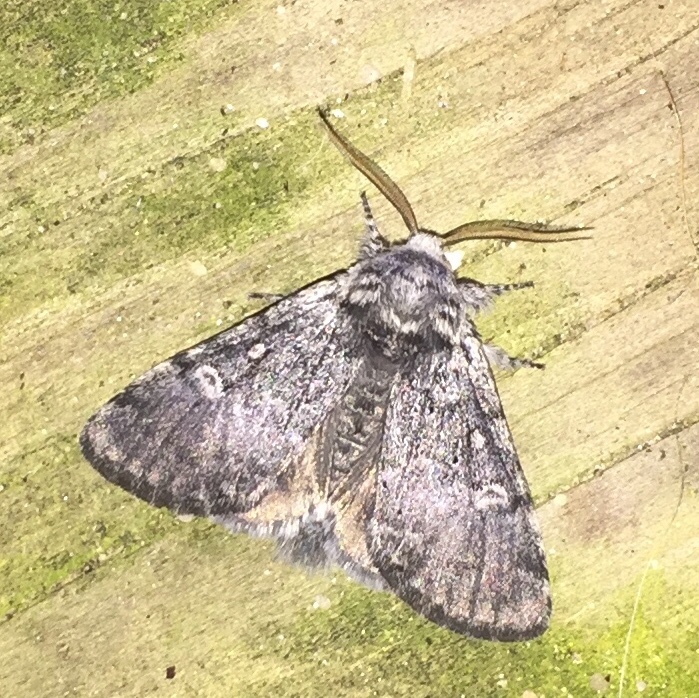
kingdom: Animalia
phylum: Arthropoda
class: Insecta
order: Lepidoptera
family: Noctuidae
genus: Colocasia
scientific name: Colocasia propinquilinea
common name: Close-banded demas
